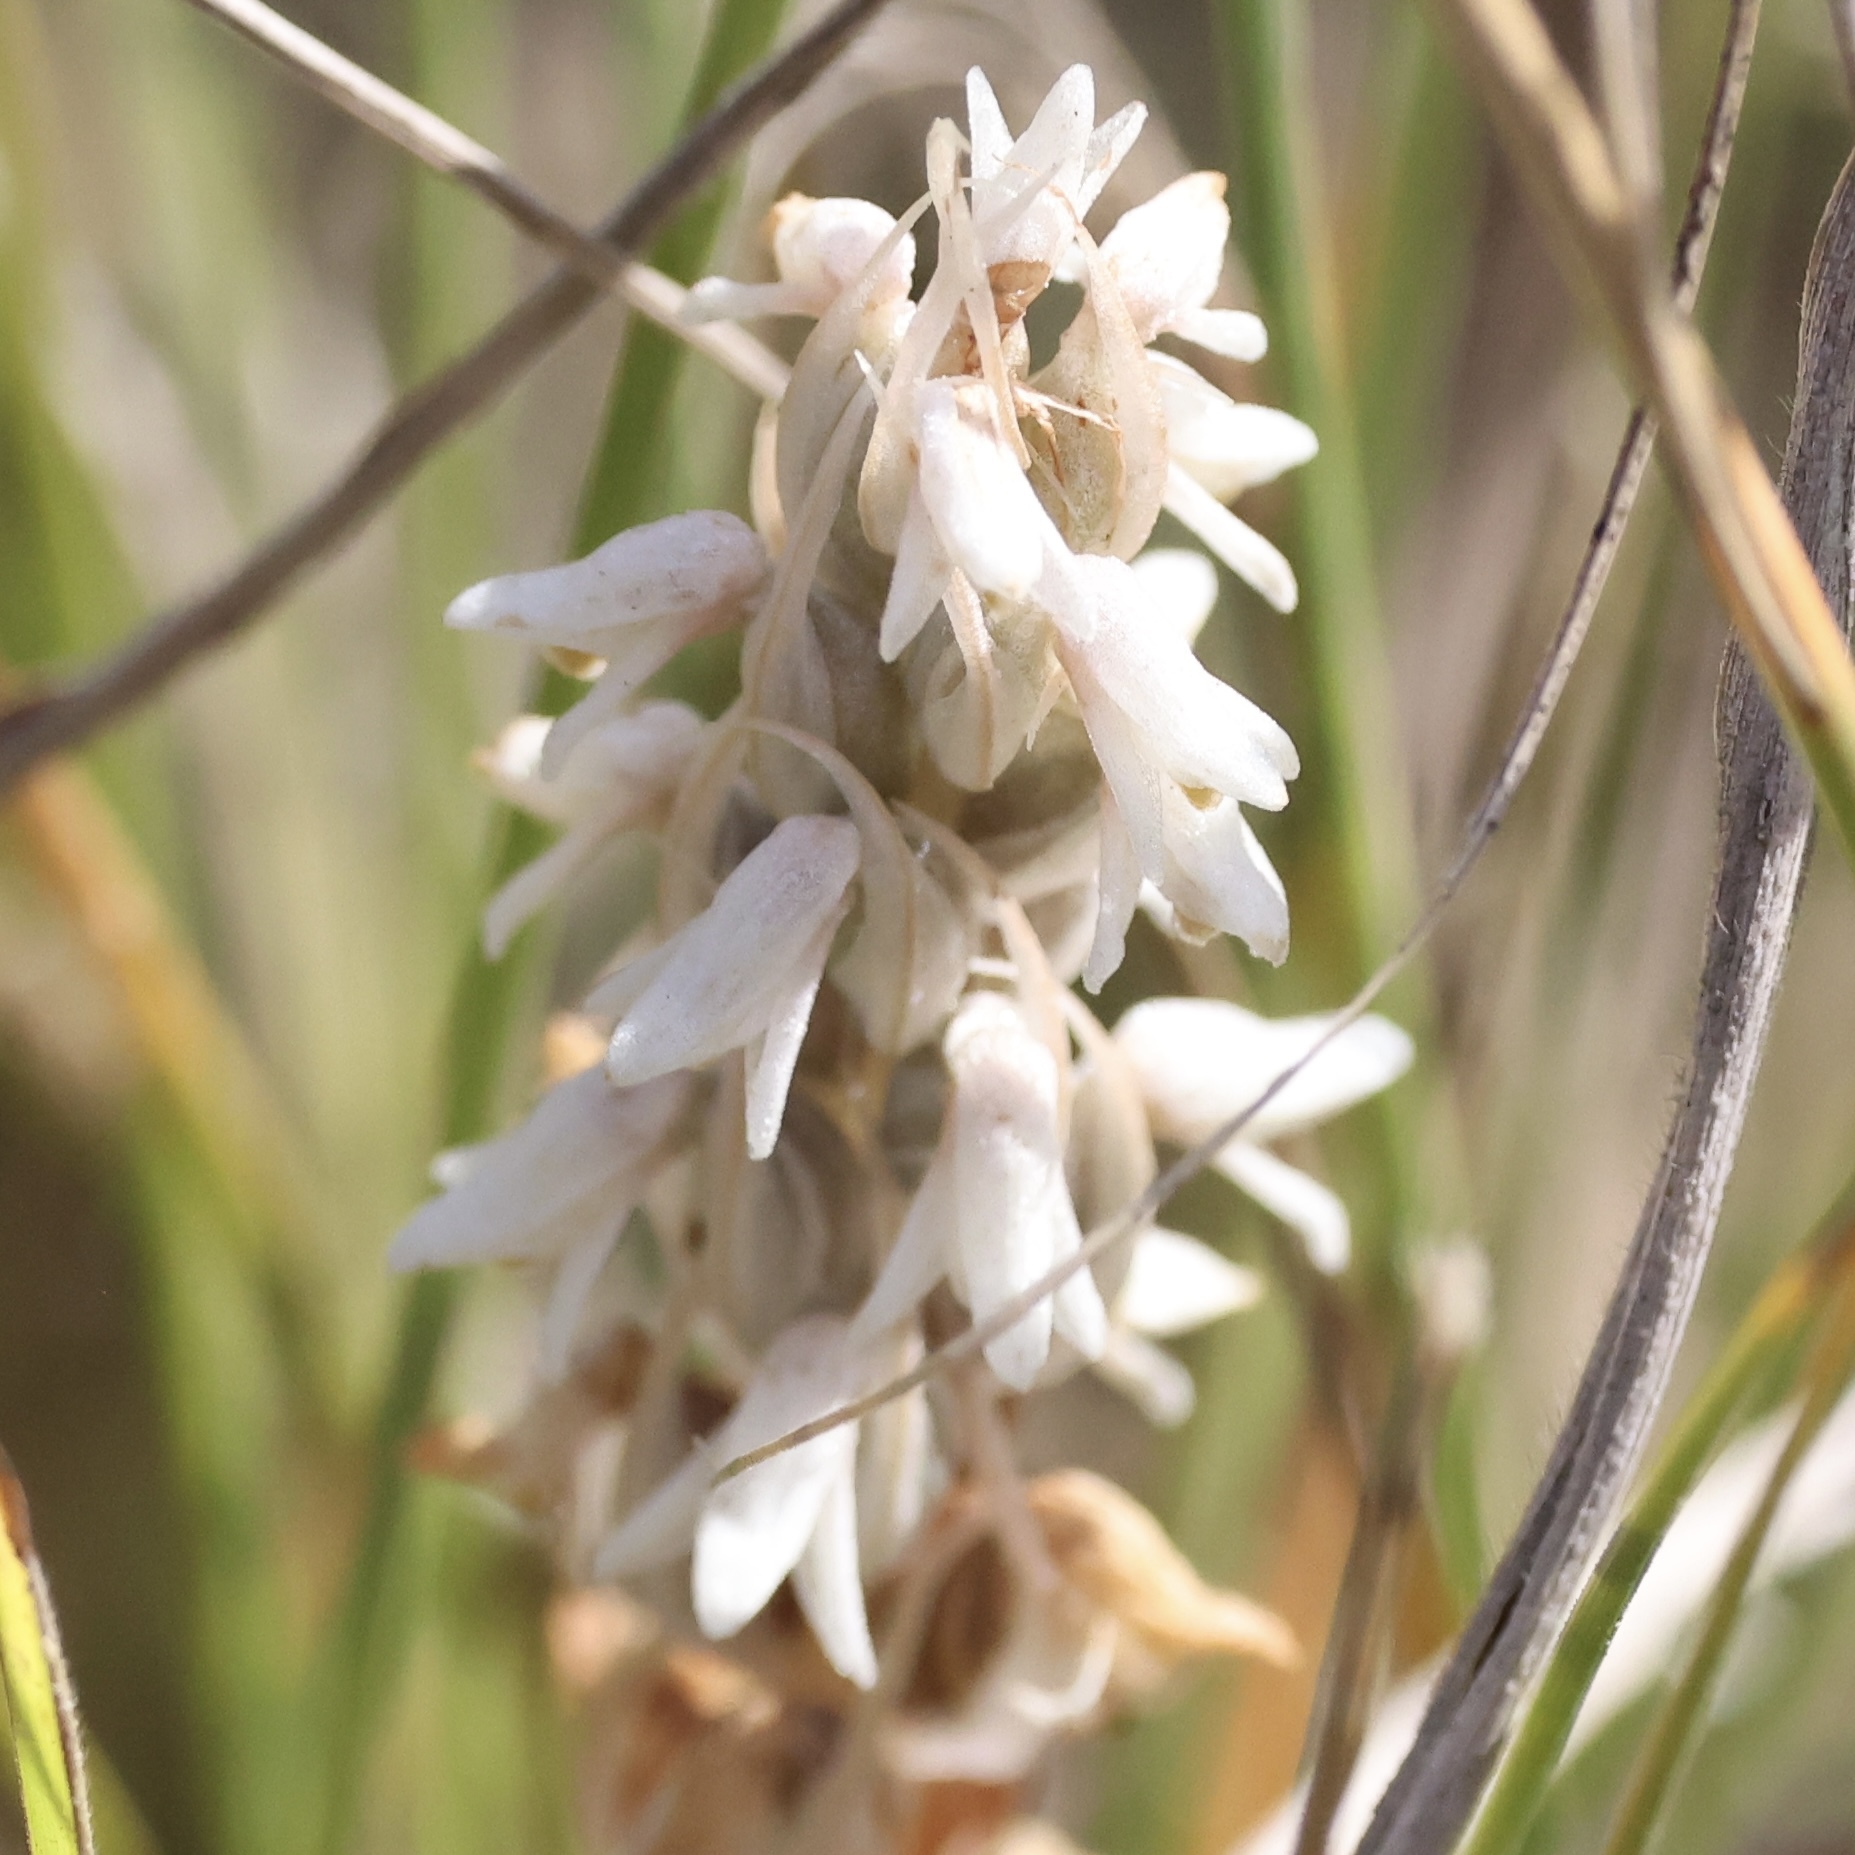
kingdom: Plantae
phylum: Tracheophyta
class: Liliopsida
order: Asparagales
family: Orchidaceae
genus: Zeuxine
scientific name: Zeuxine strateumatica
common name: Soldier's orchid
